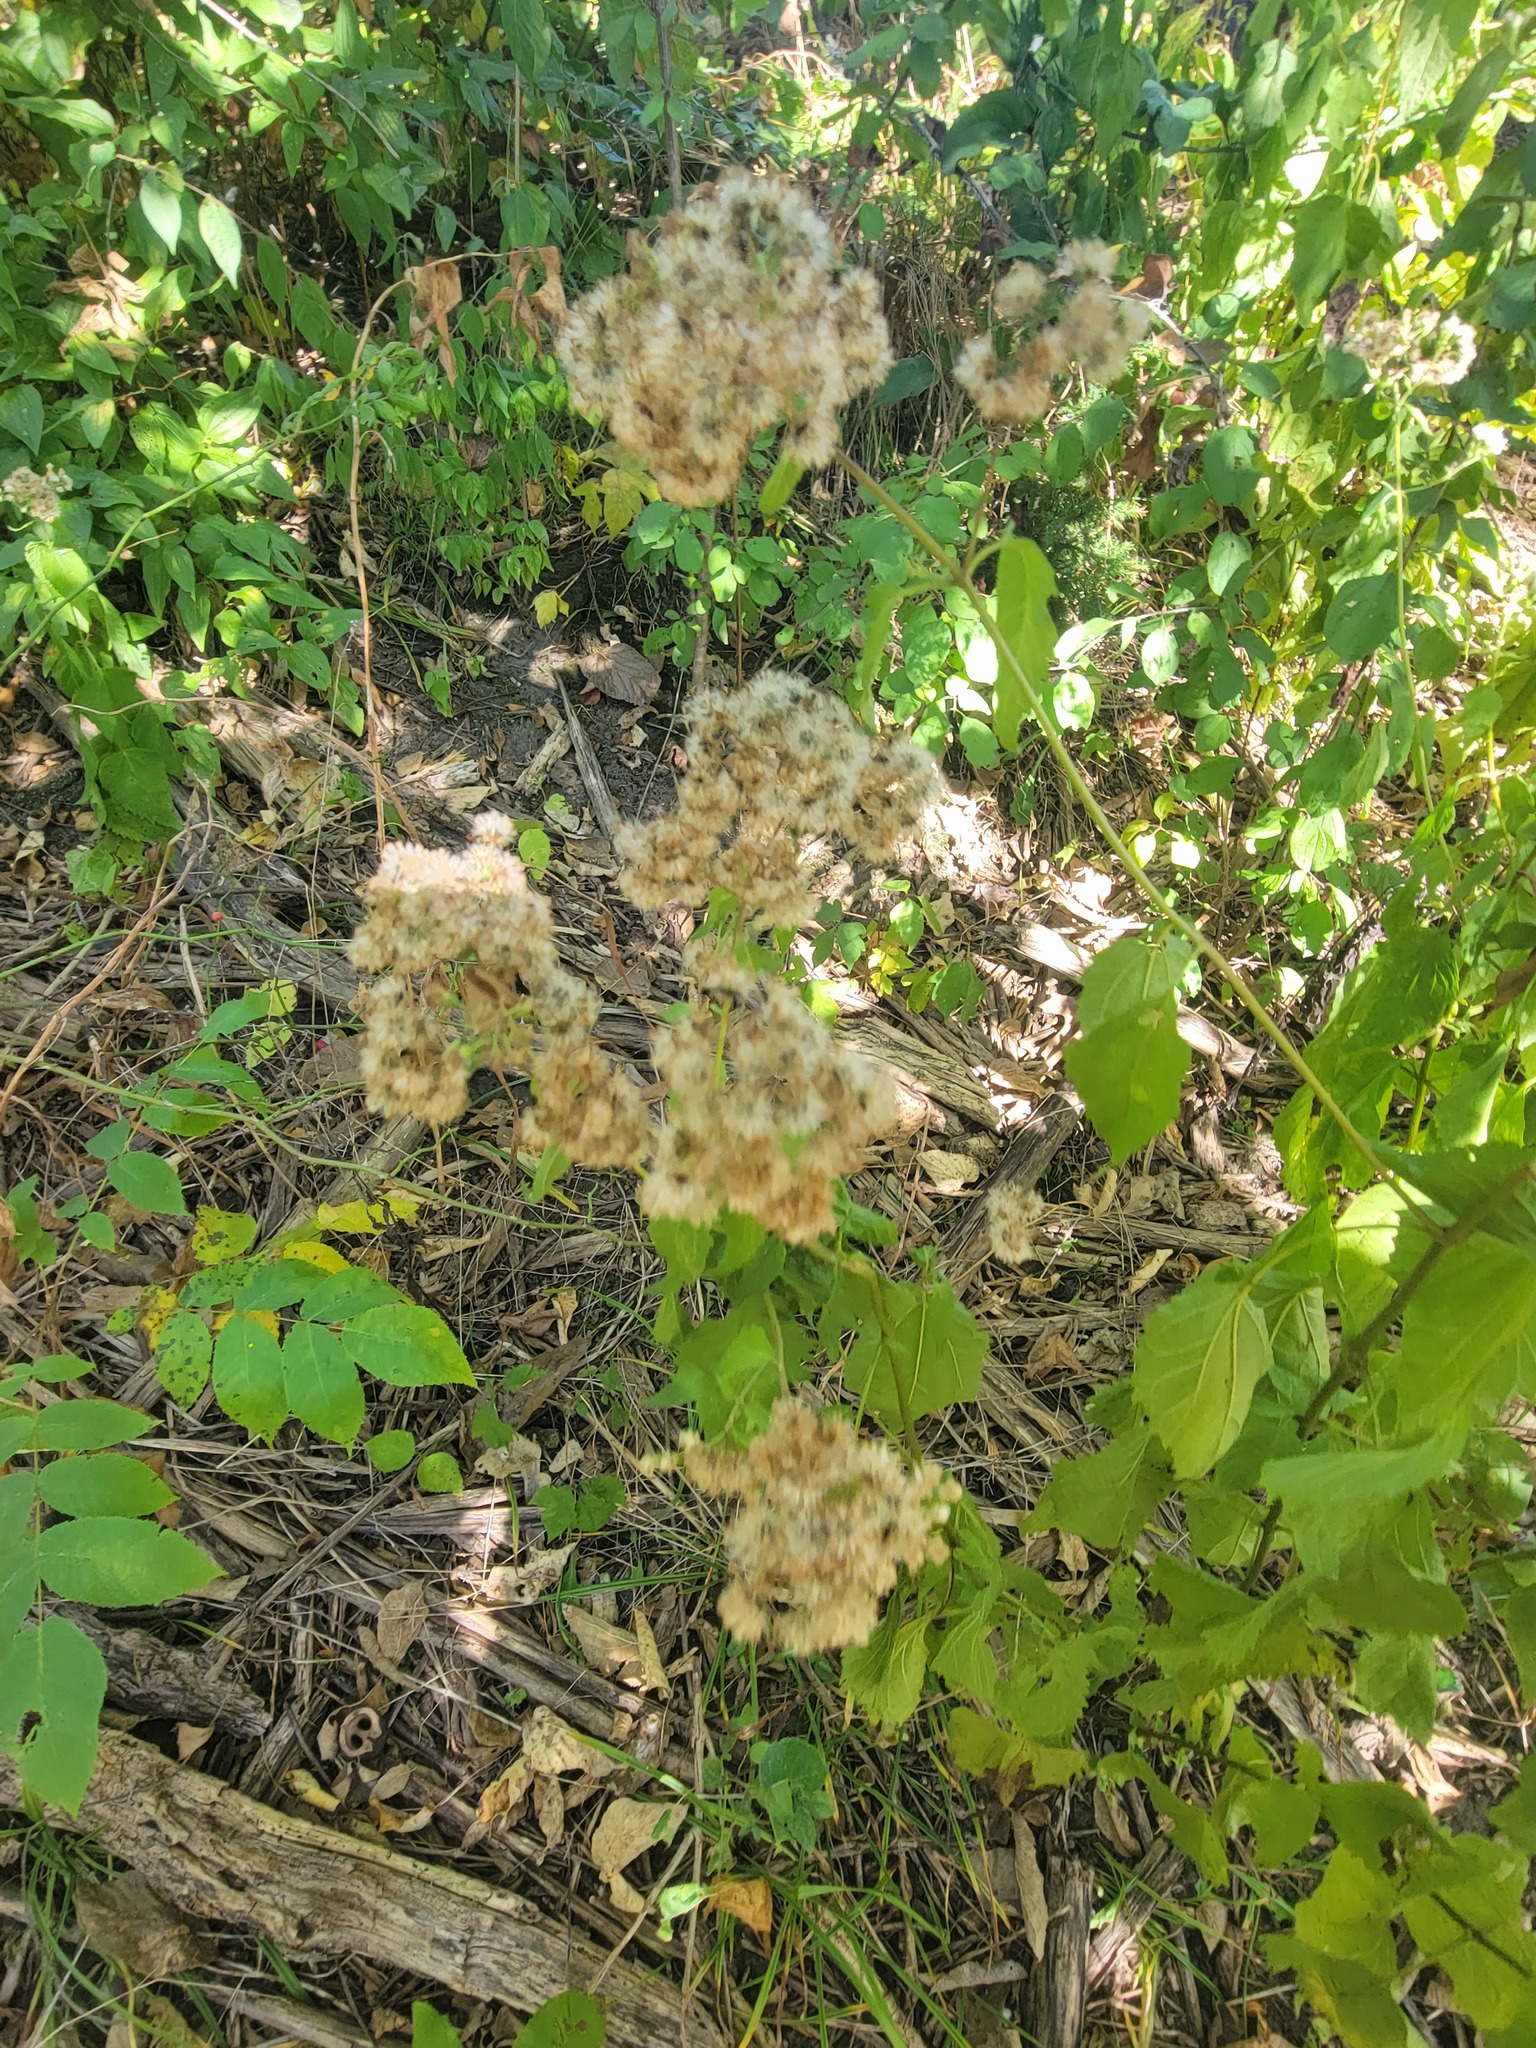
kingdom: Plantae
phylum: Tracheophyta
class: Magnoliopsida
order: Asterales
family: Asteraceae
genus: Ageratina
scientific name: Ageratina altissima
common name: White snakeroot
